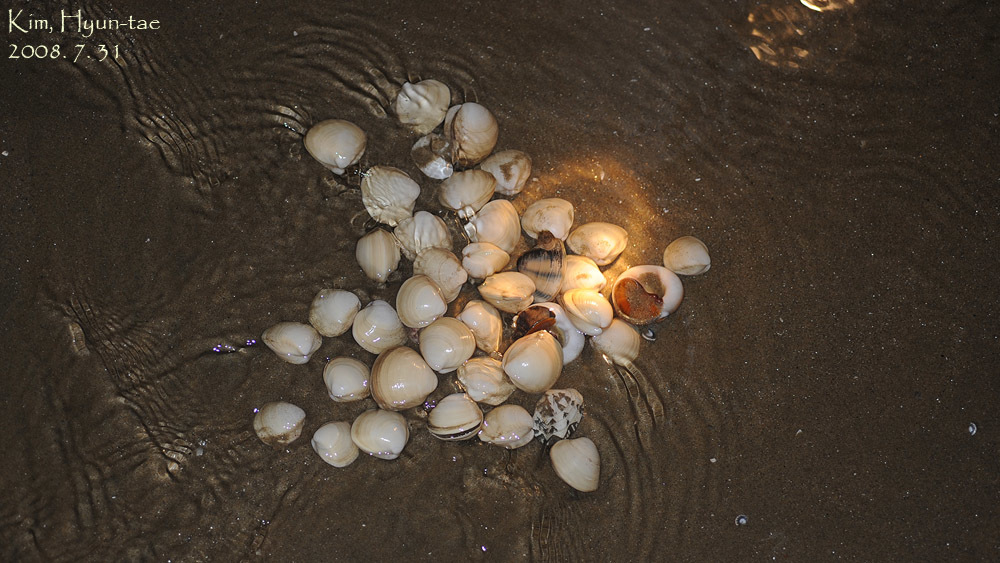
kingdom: Animalia
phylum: Mollusca
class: Bivalvia
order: Venerida
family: Mactridae
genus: Mactra
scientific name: Mactra quadrangularis
